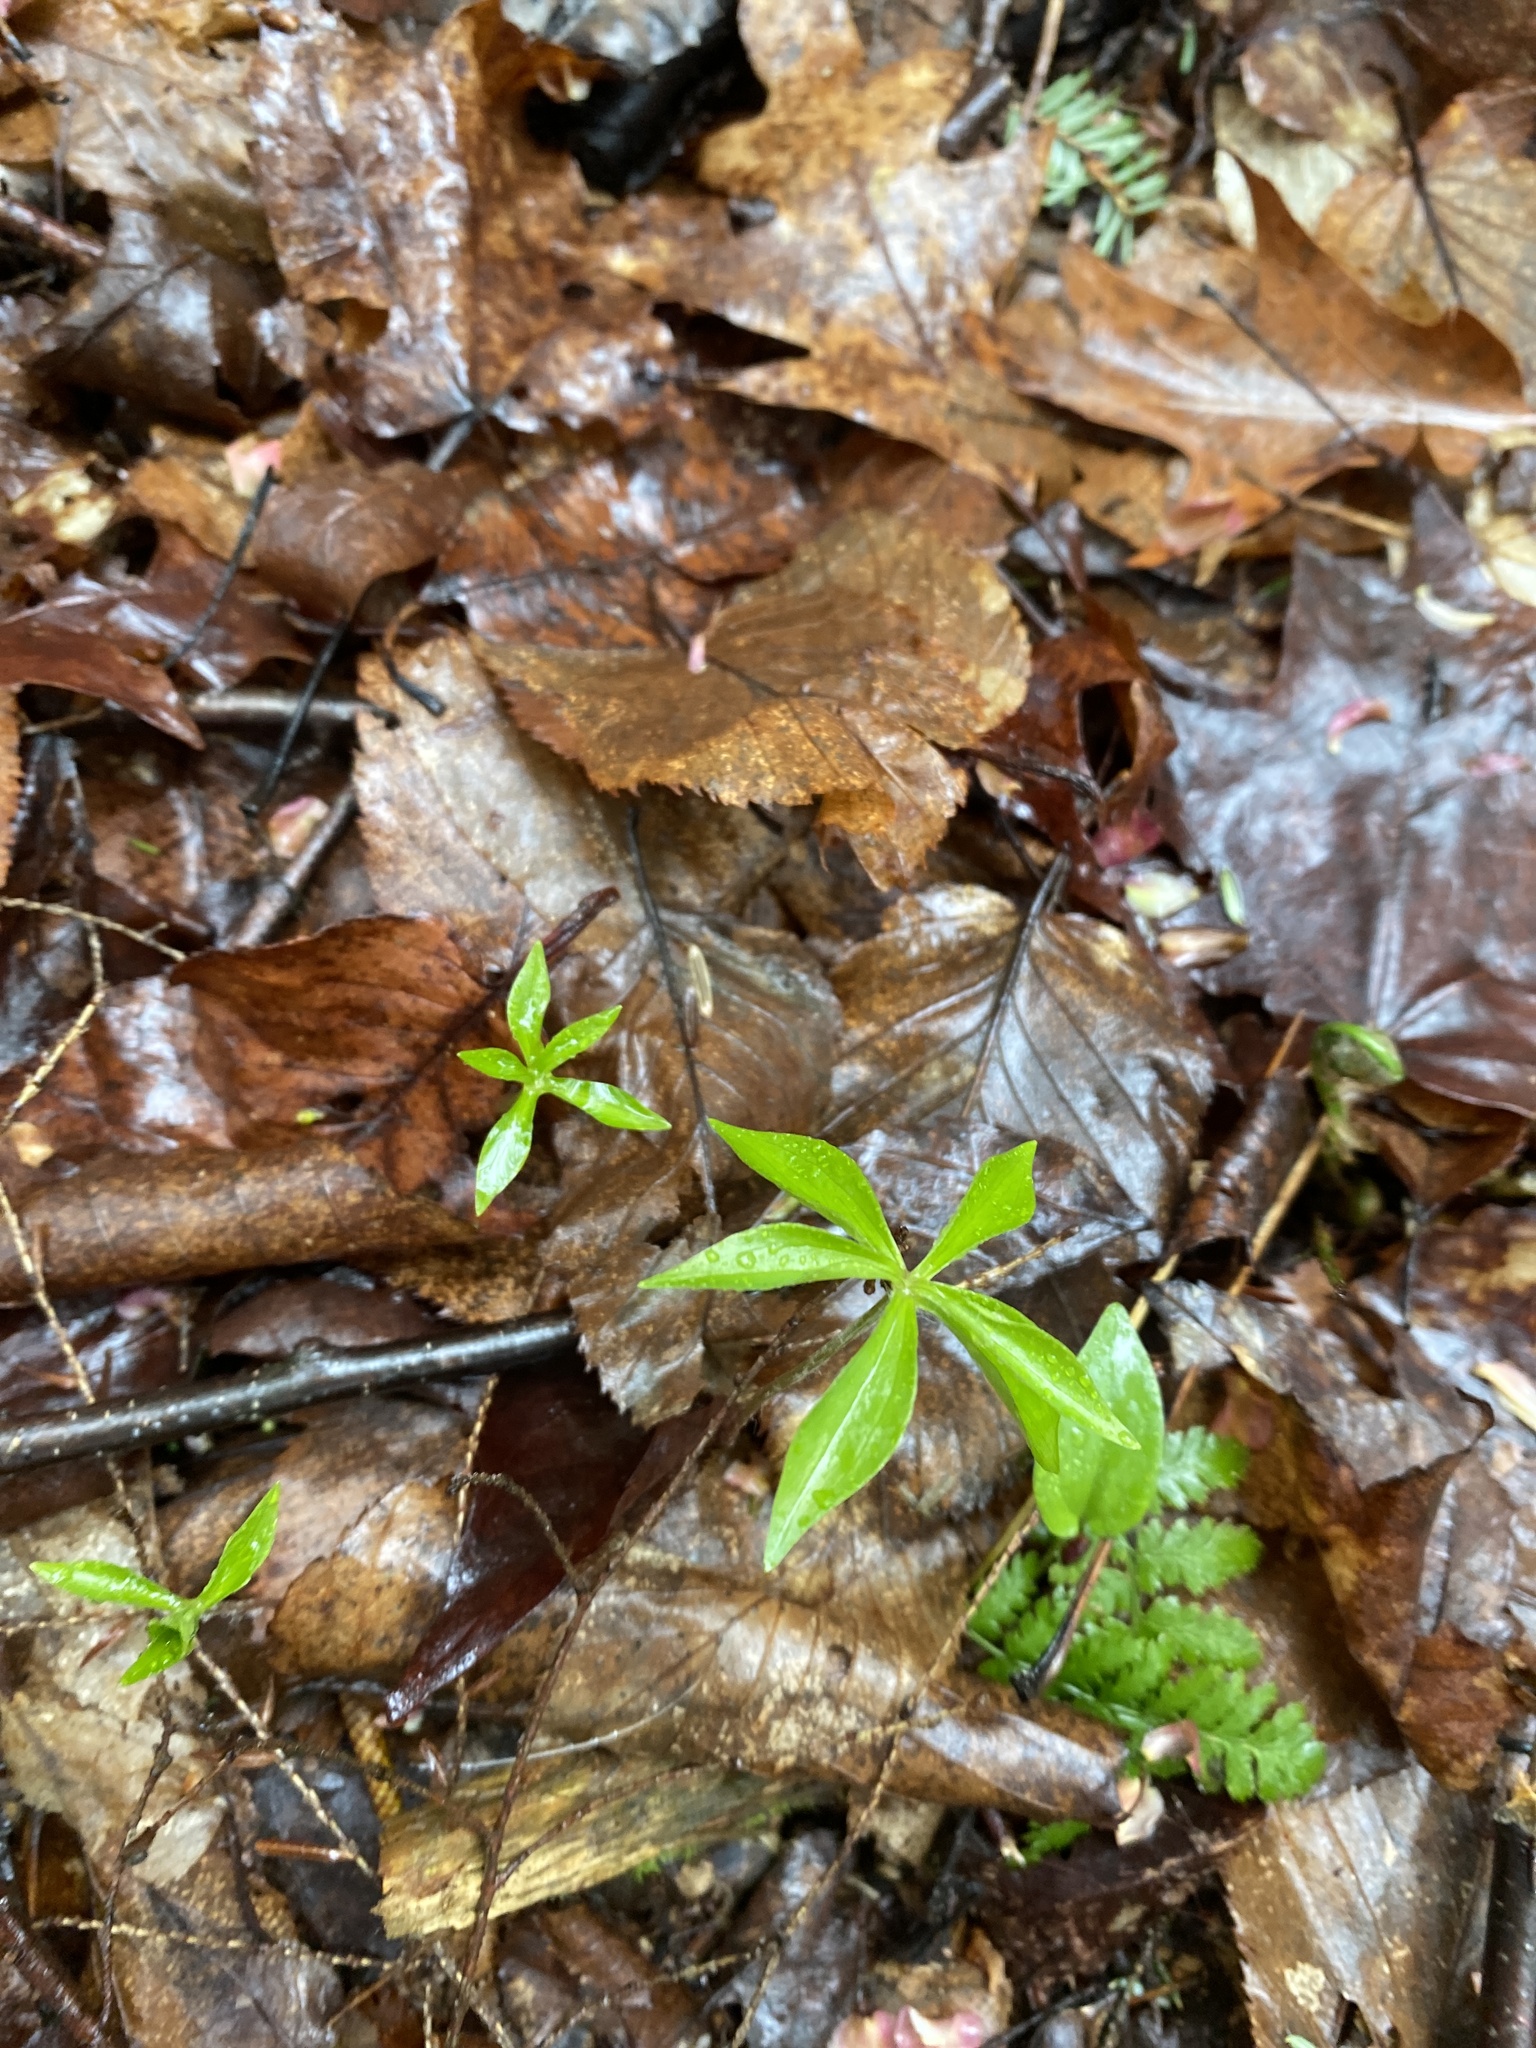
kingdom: Plantae
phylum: Tracheophyta
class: Liliopsida
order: Liliales
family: Liliaceae
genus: Medeola
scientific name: Medeola virginiana
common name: Indian cucumber-root
